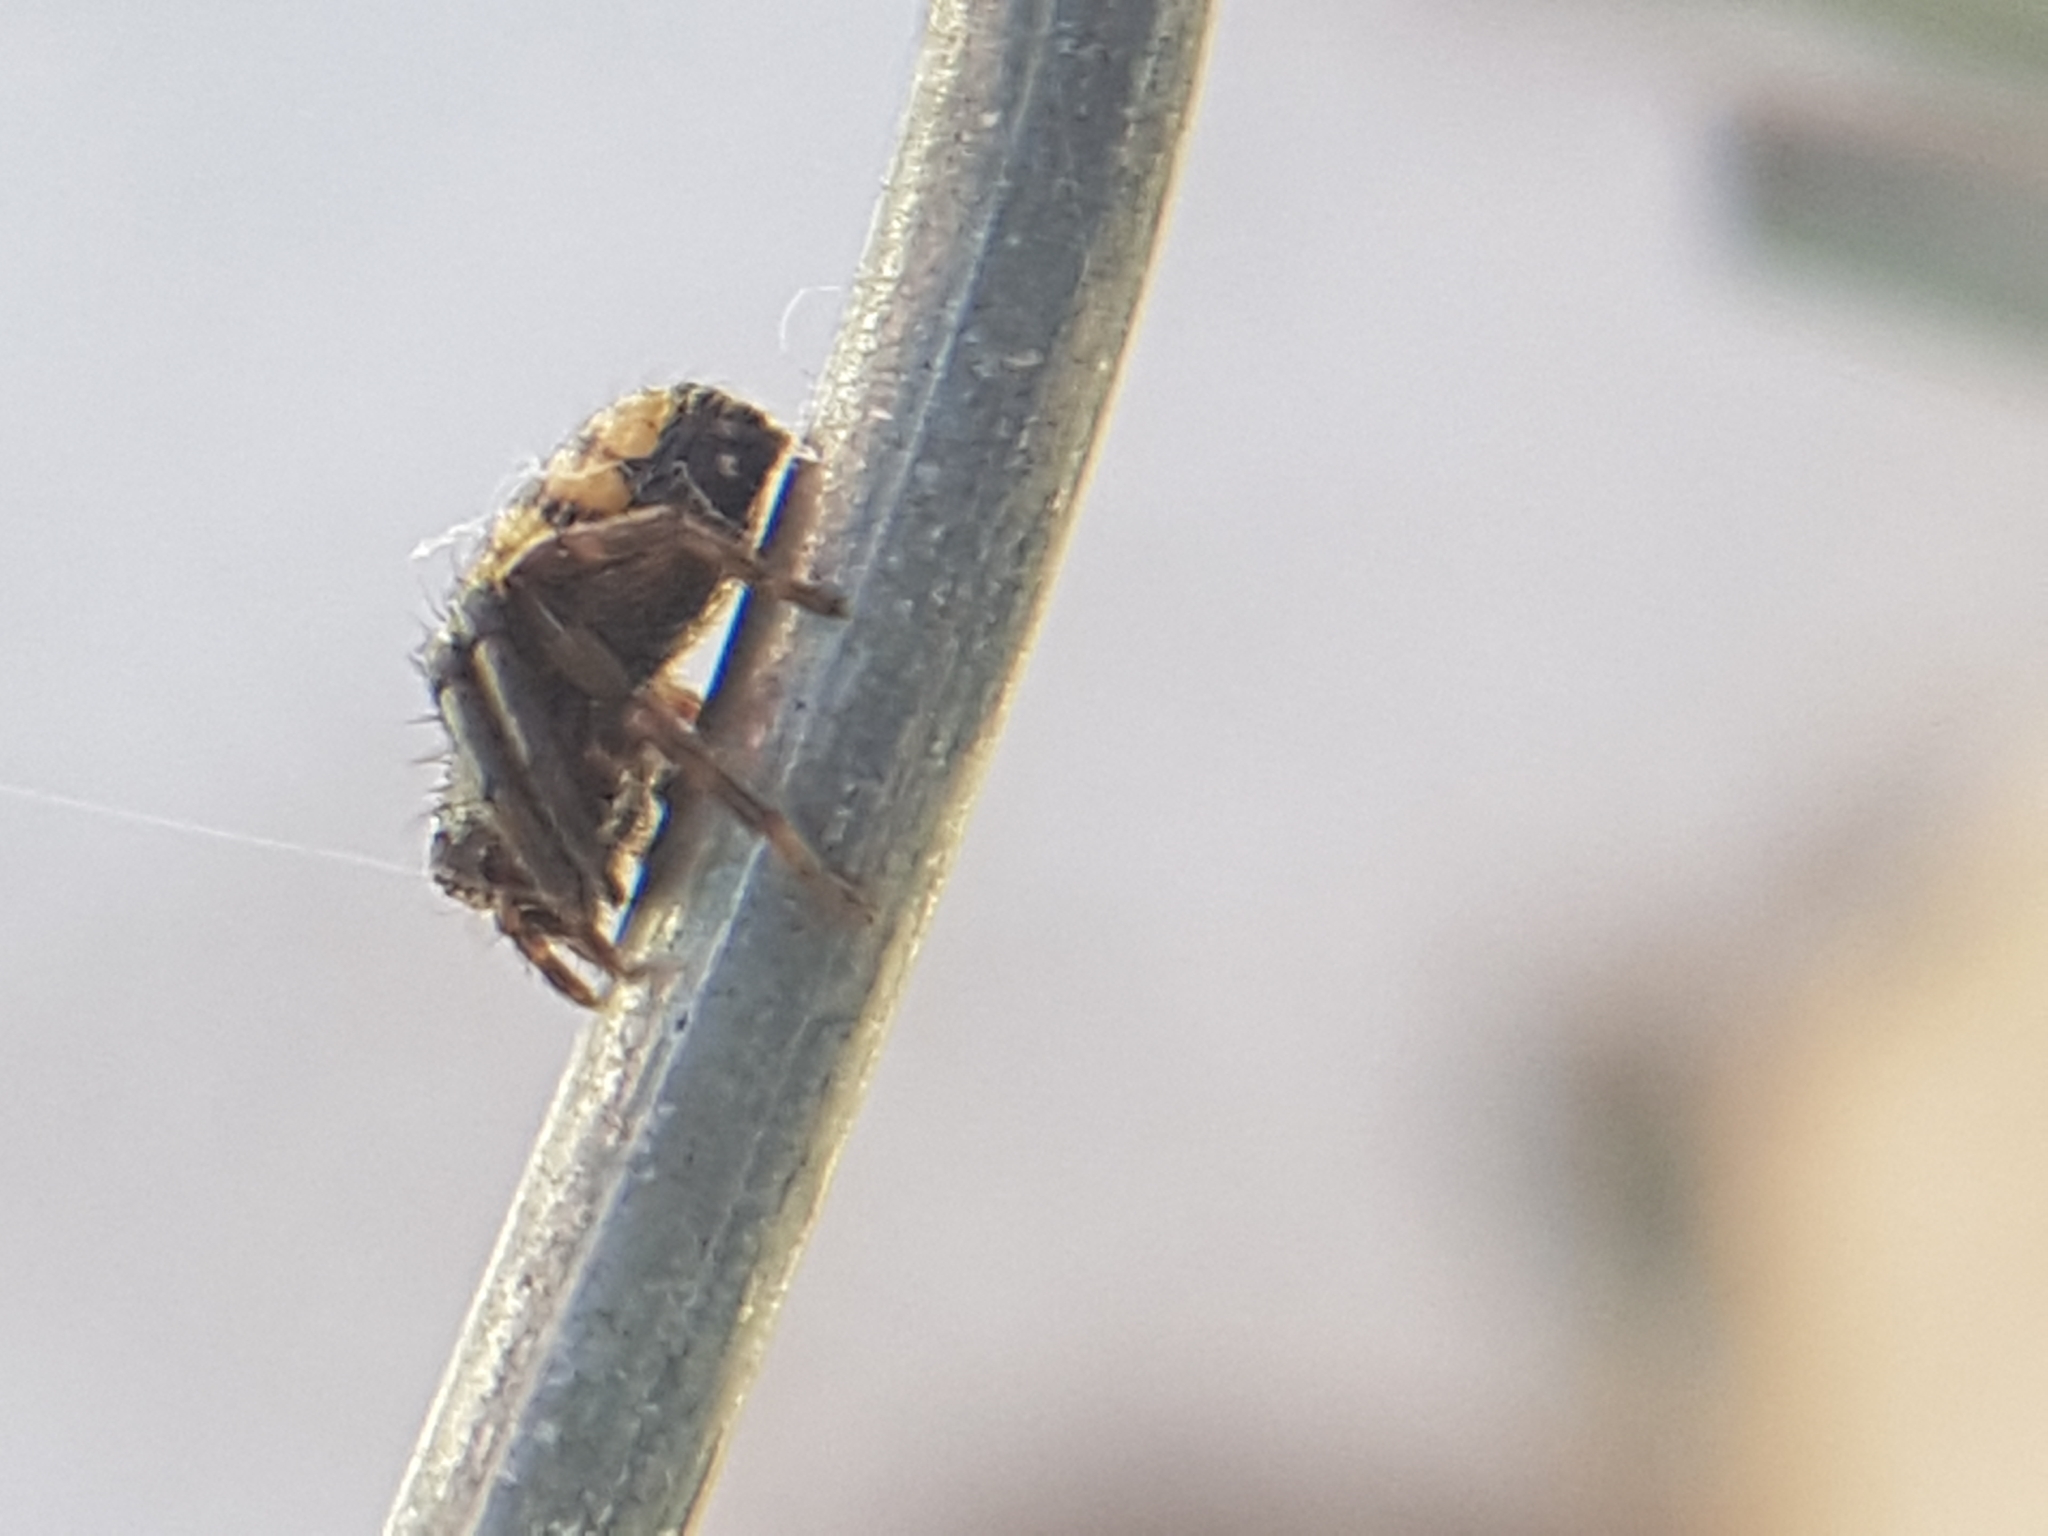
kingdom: Animalia
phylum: Arthropoda
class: Arachnida
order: Araneae
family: Thomisidae
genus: Synema
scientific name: Synema globosum
